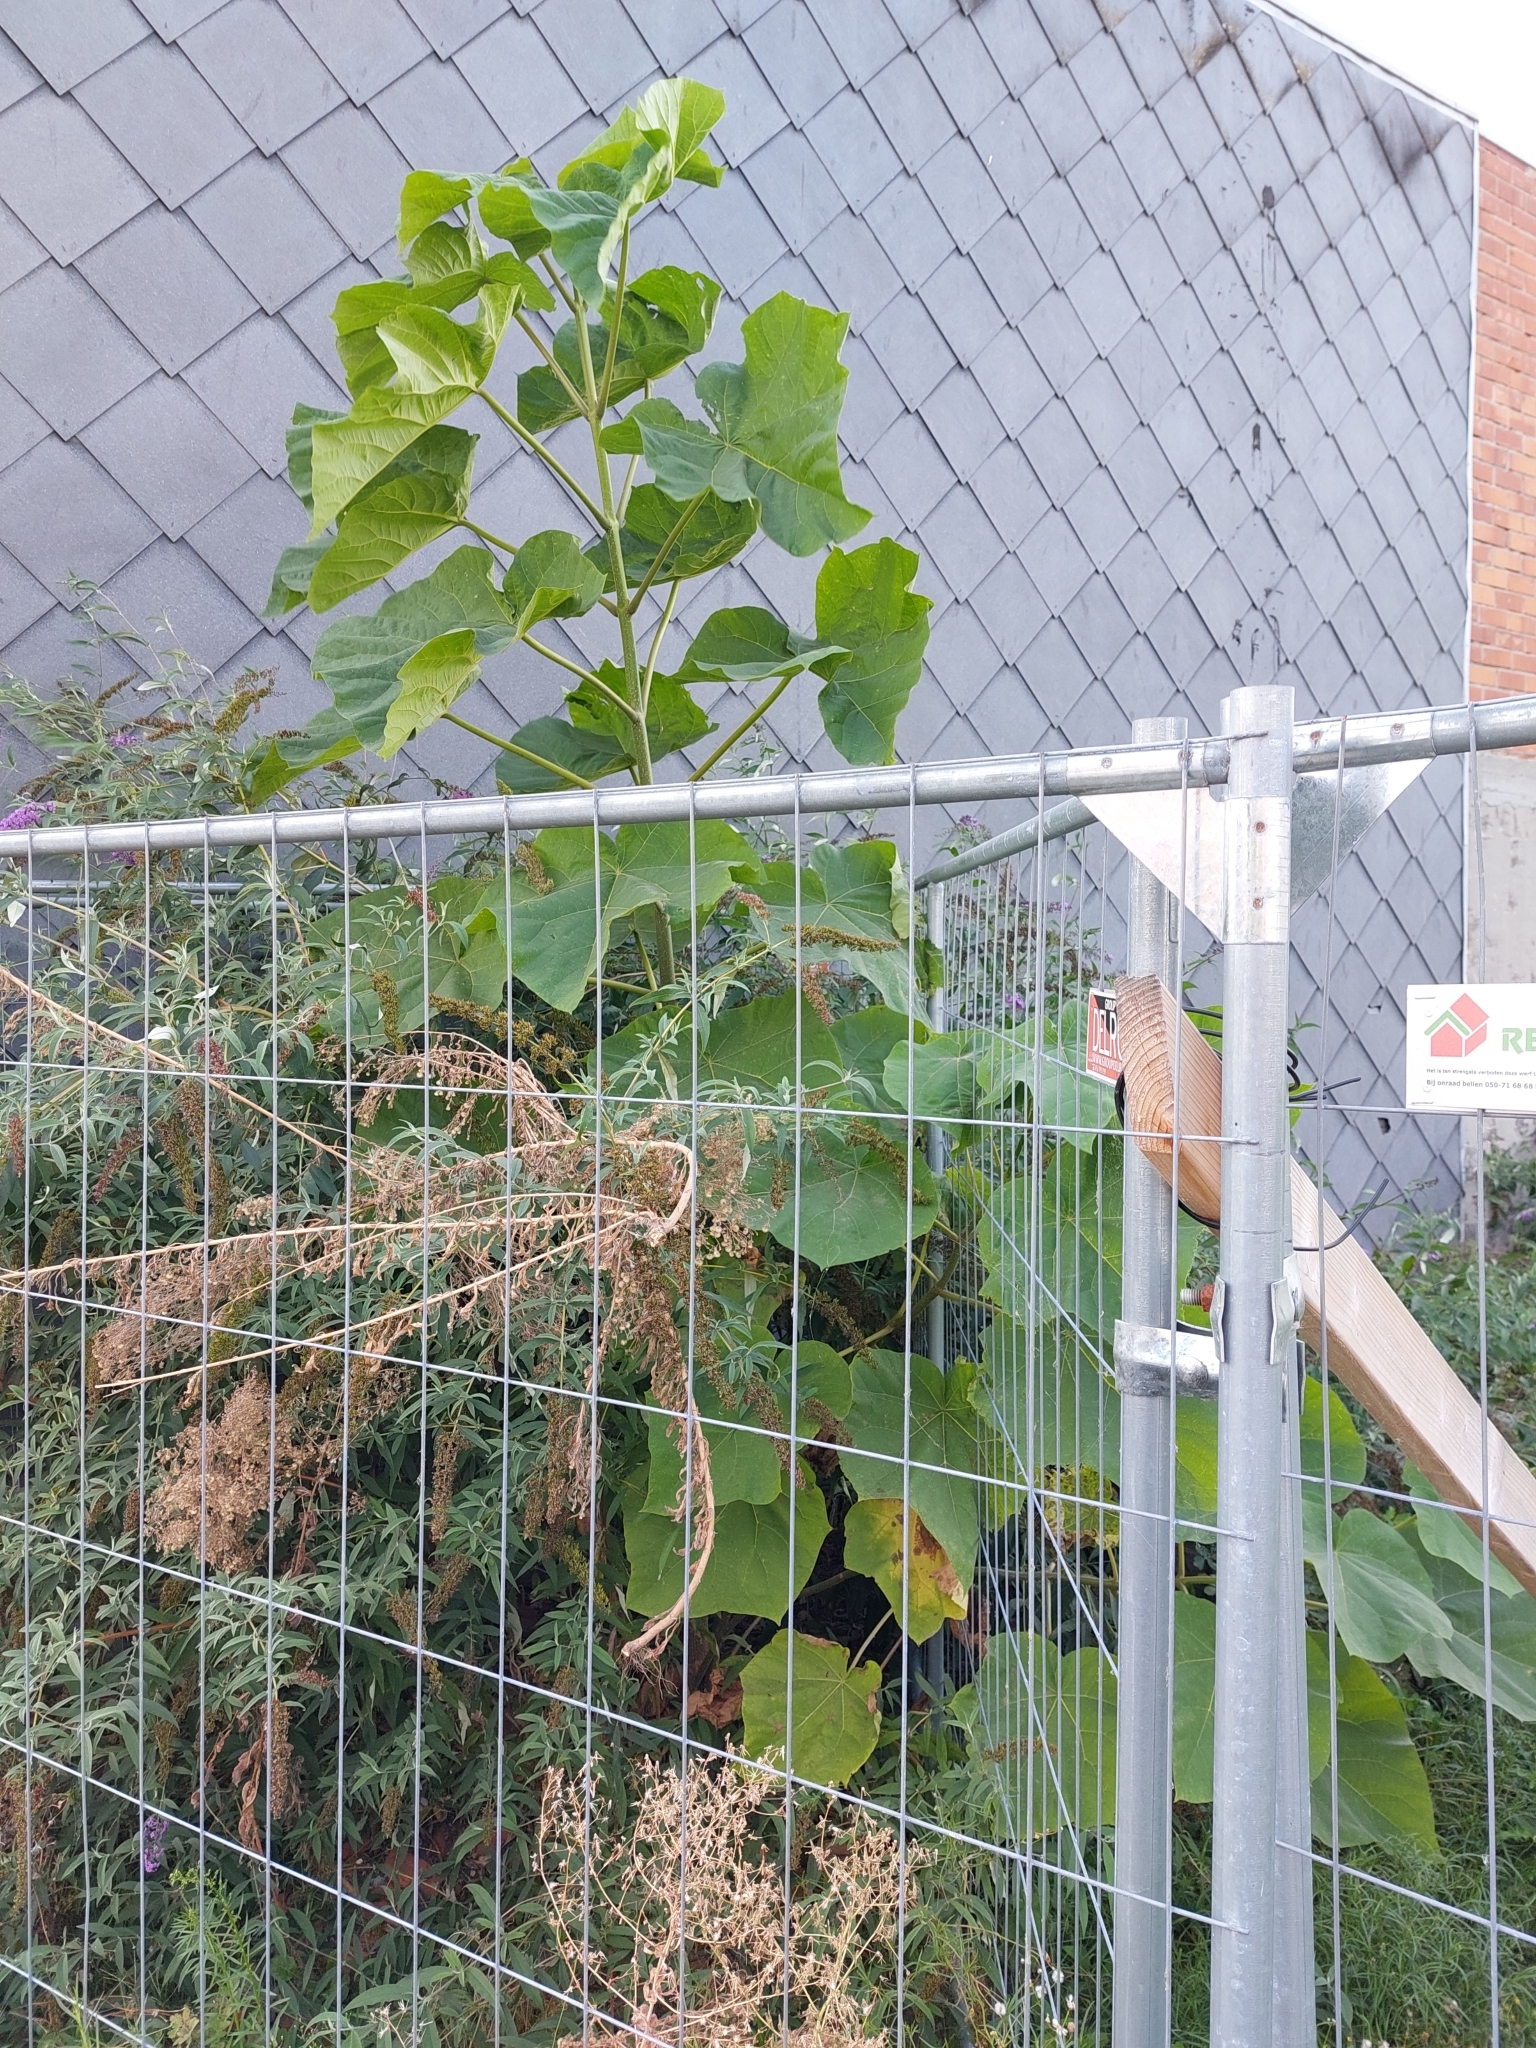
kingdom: Plantae
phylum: Tracheophyta
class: Magnoliopsida
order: Lamiales
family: Paulowniaceae
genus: Paulownia
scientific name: Paulownia tomentosa
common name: Foxglove-tree
